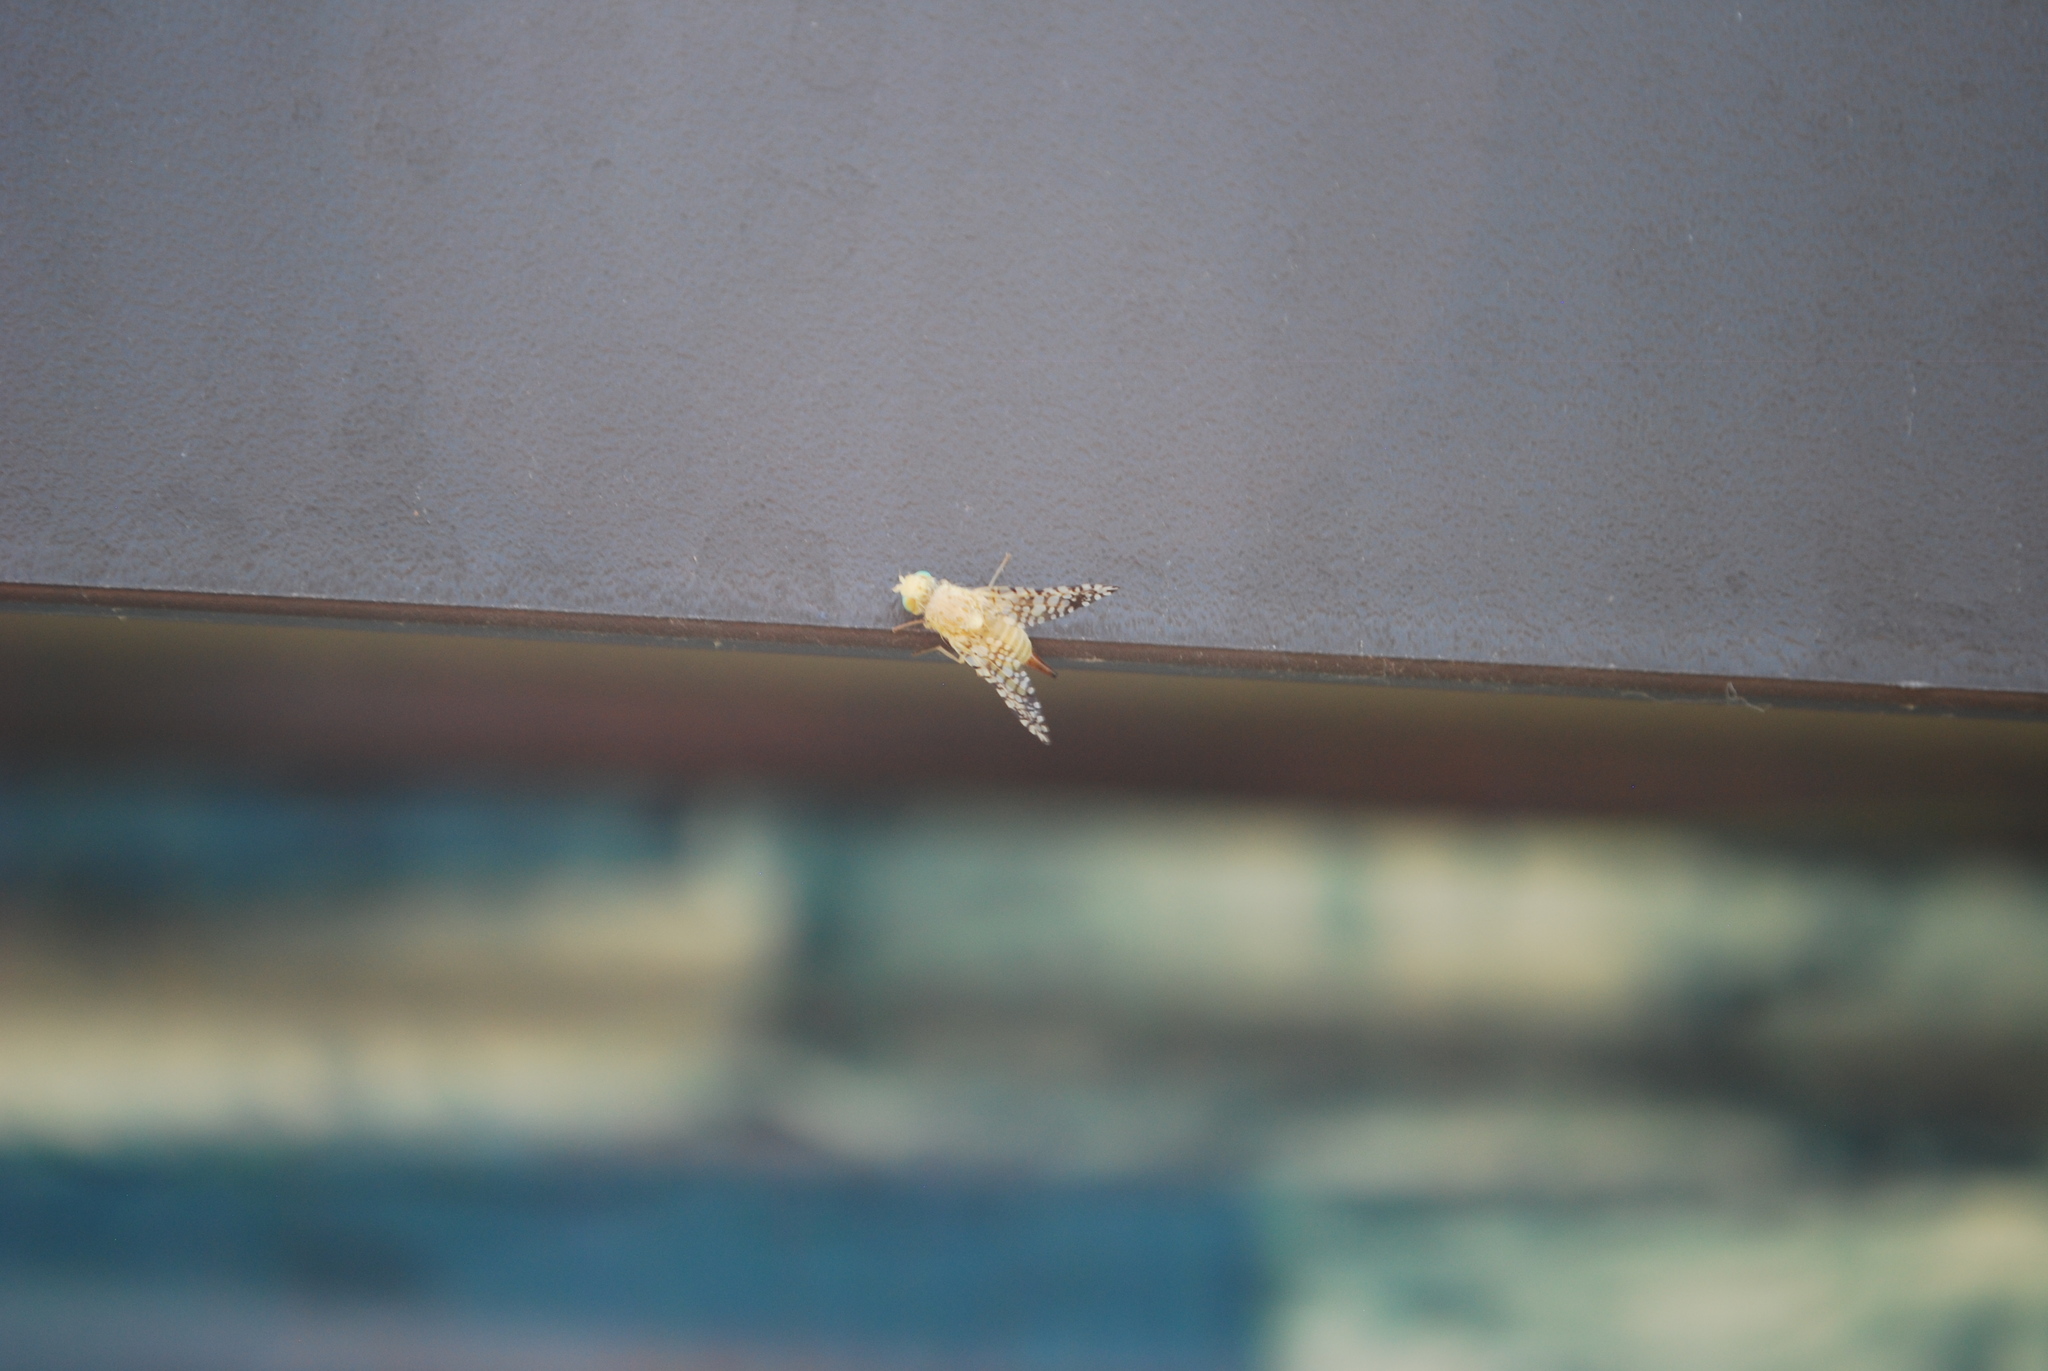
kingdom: Animalia
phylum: Arthropoda
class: Insecta
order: Diptera
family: Tephritidae
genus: Euaresta
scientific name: Euaresta aequalis
